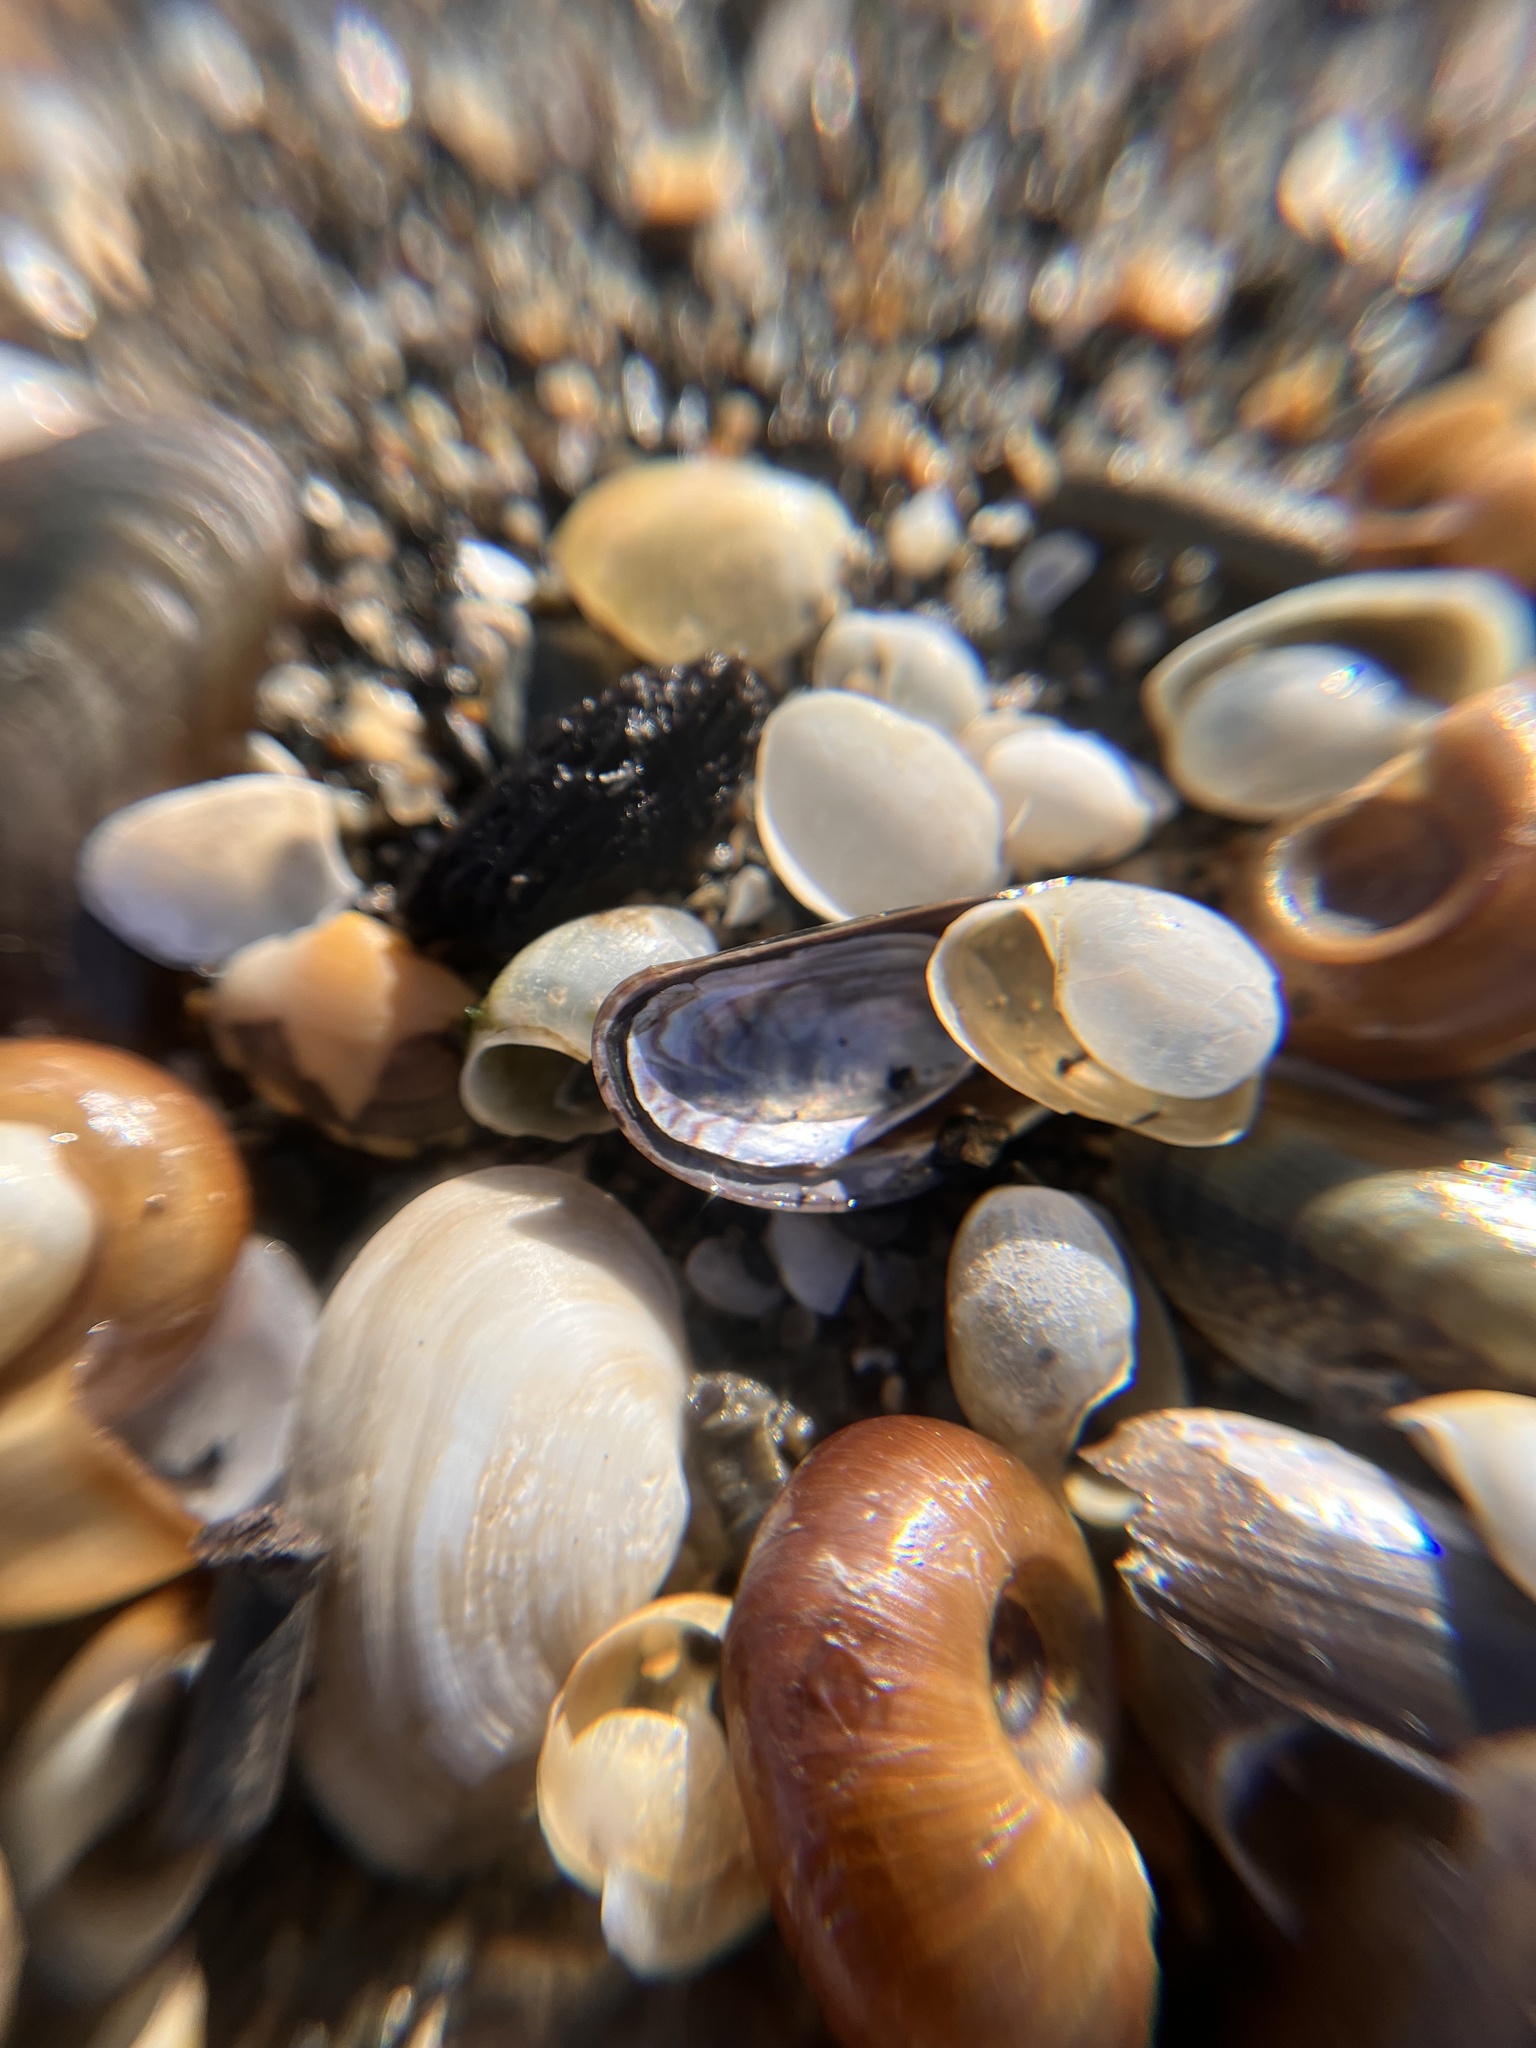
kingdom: Animalia
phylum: Mollusca
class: Gastropoda
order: Cephalaspidea
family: Haminoeidae
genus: Haloa
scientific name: Haloa japonica
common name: Japanese bubble snail
